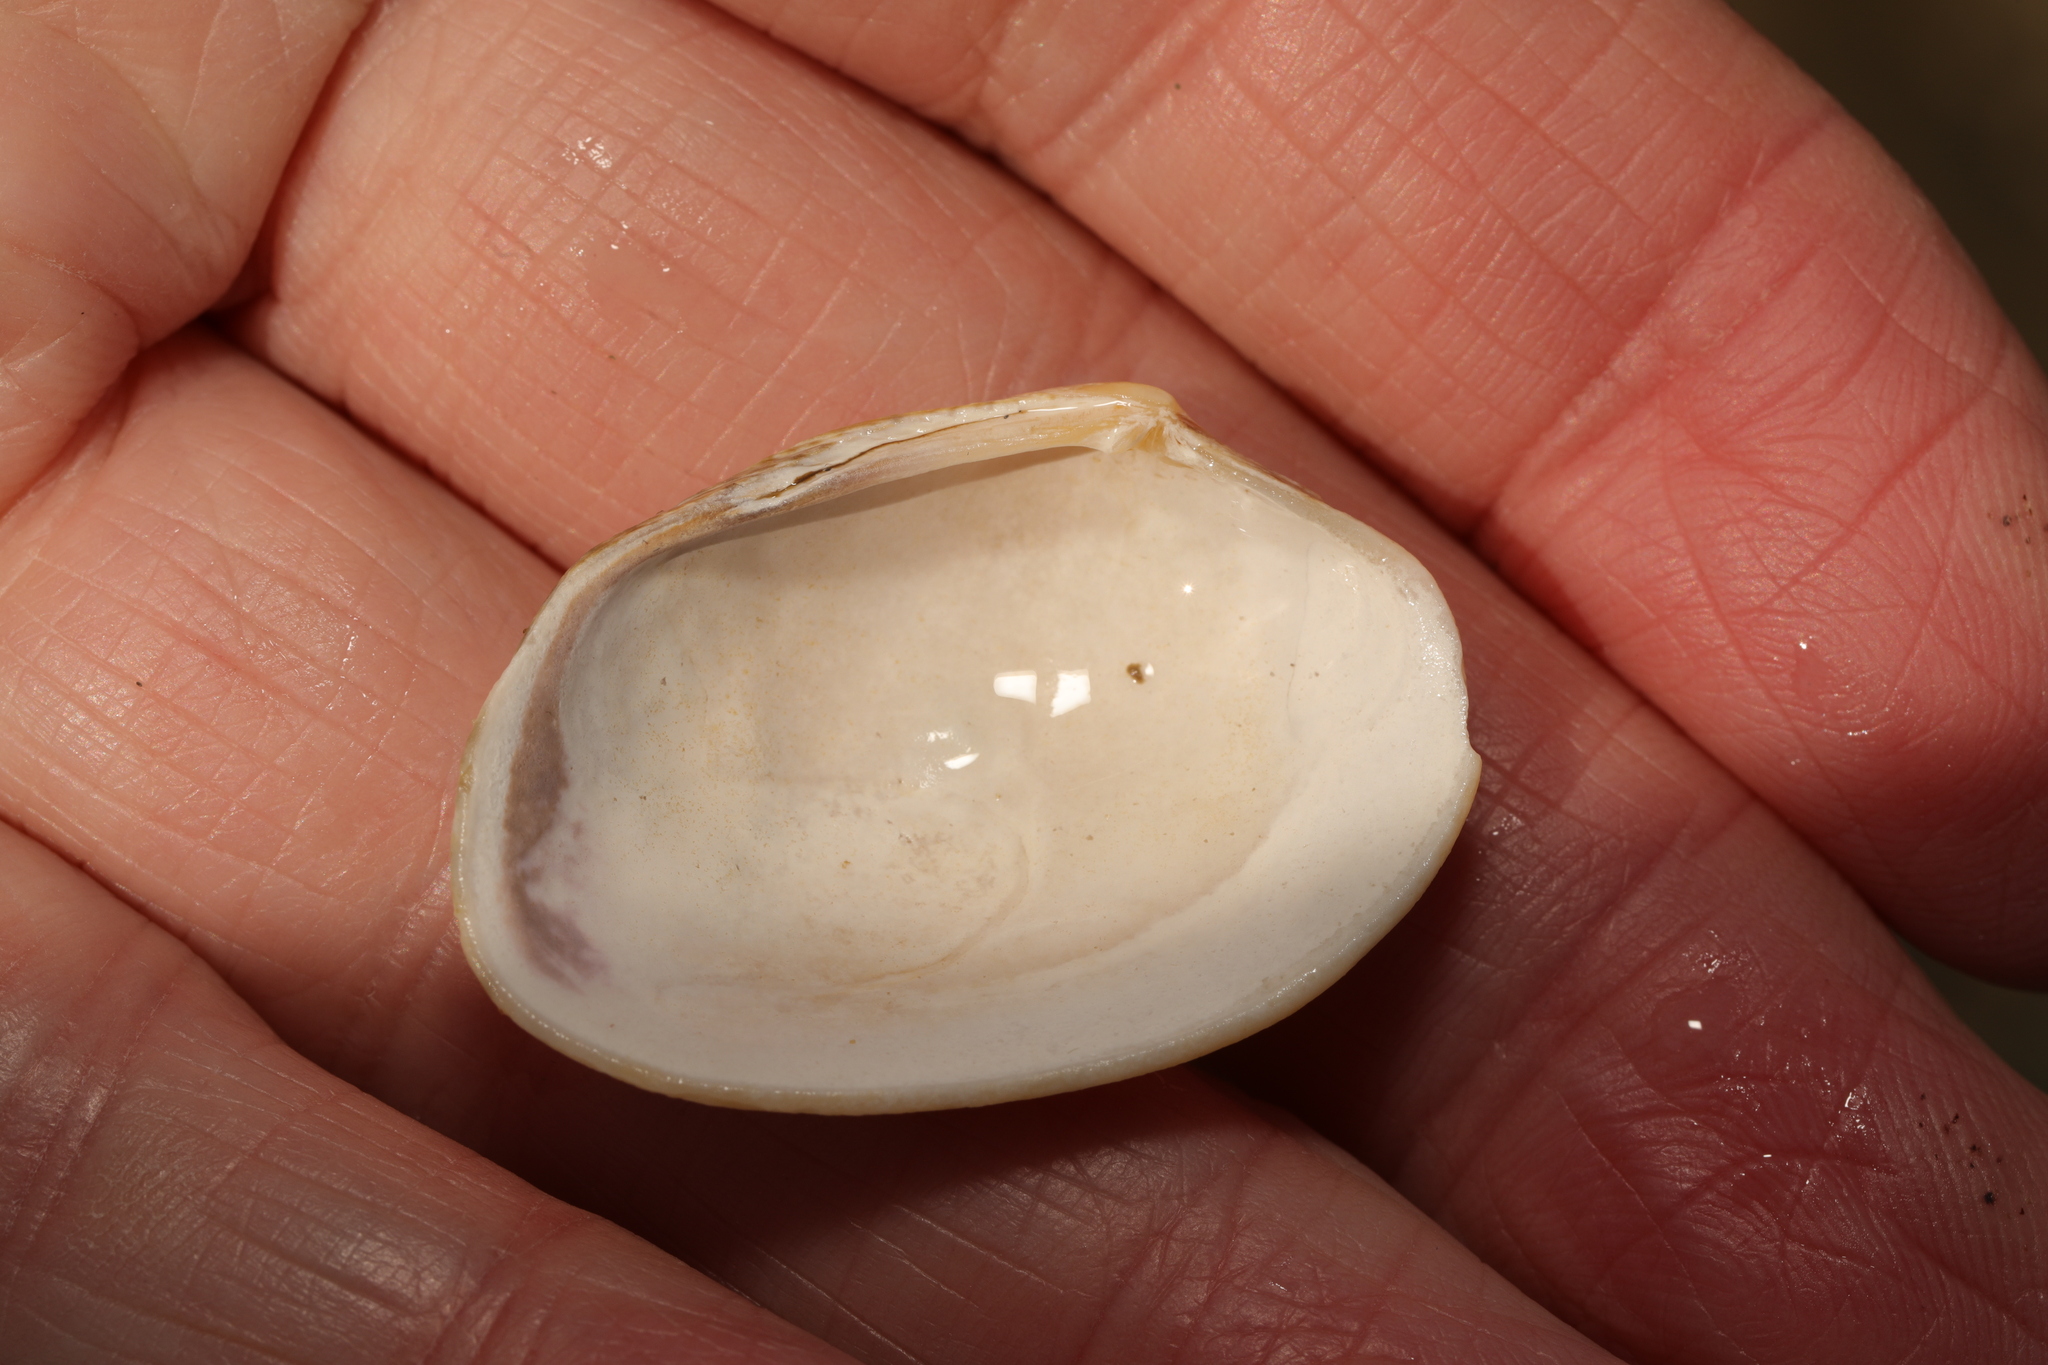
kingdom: Animalia
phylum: Mollusca
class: Bivalvia
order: Venerida
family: Veneridae
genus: Venerupis
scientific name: Venerupis corrugata
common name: Pullet carpet shell
